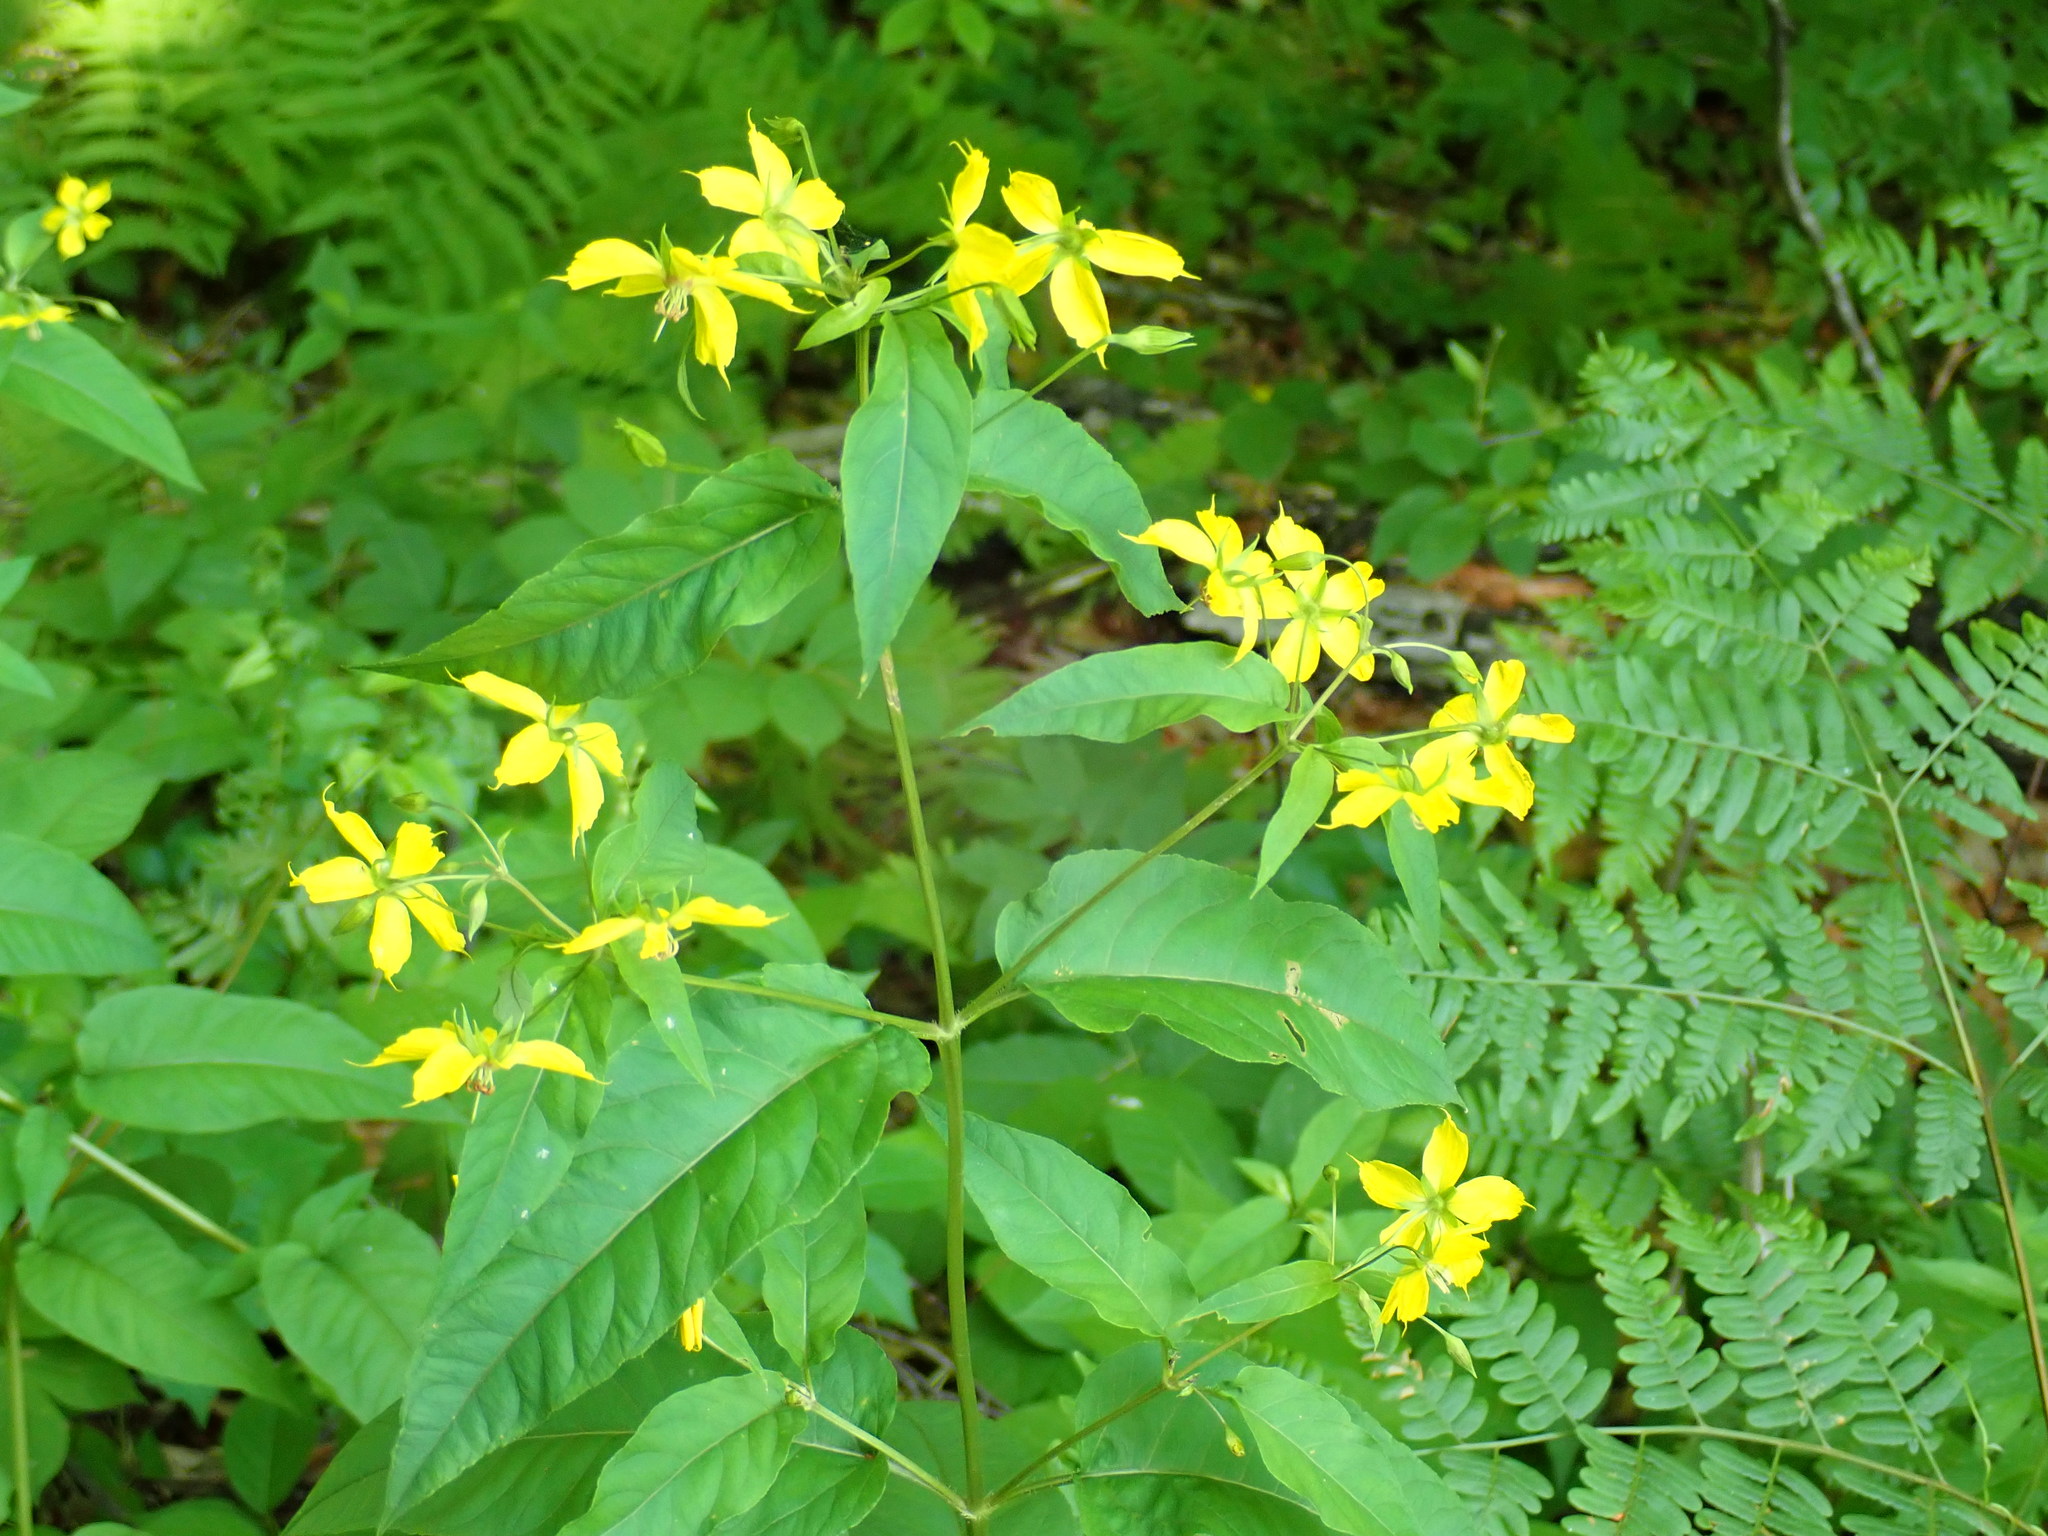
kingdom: Plantae
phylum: Tracheophyta
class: Magnoliopsida
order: Ericales
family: Primulaceae
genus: Lysimachia
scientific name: Lysimachia ciliata
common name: Fringed loosestrife
